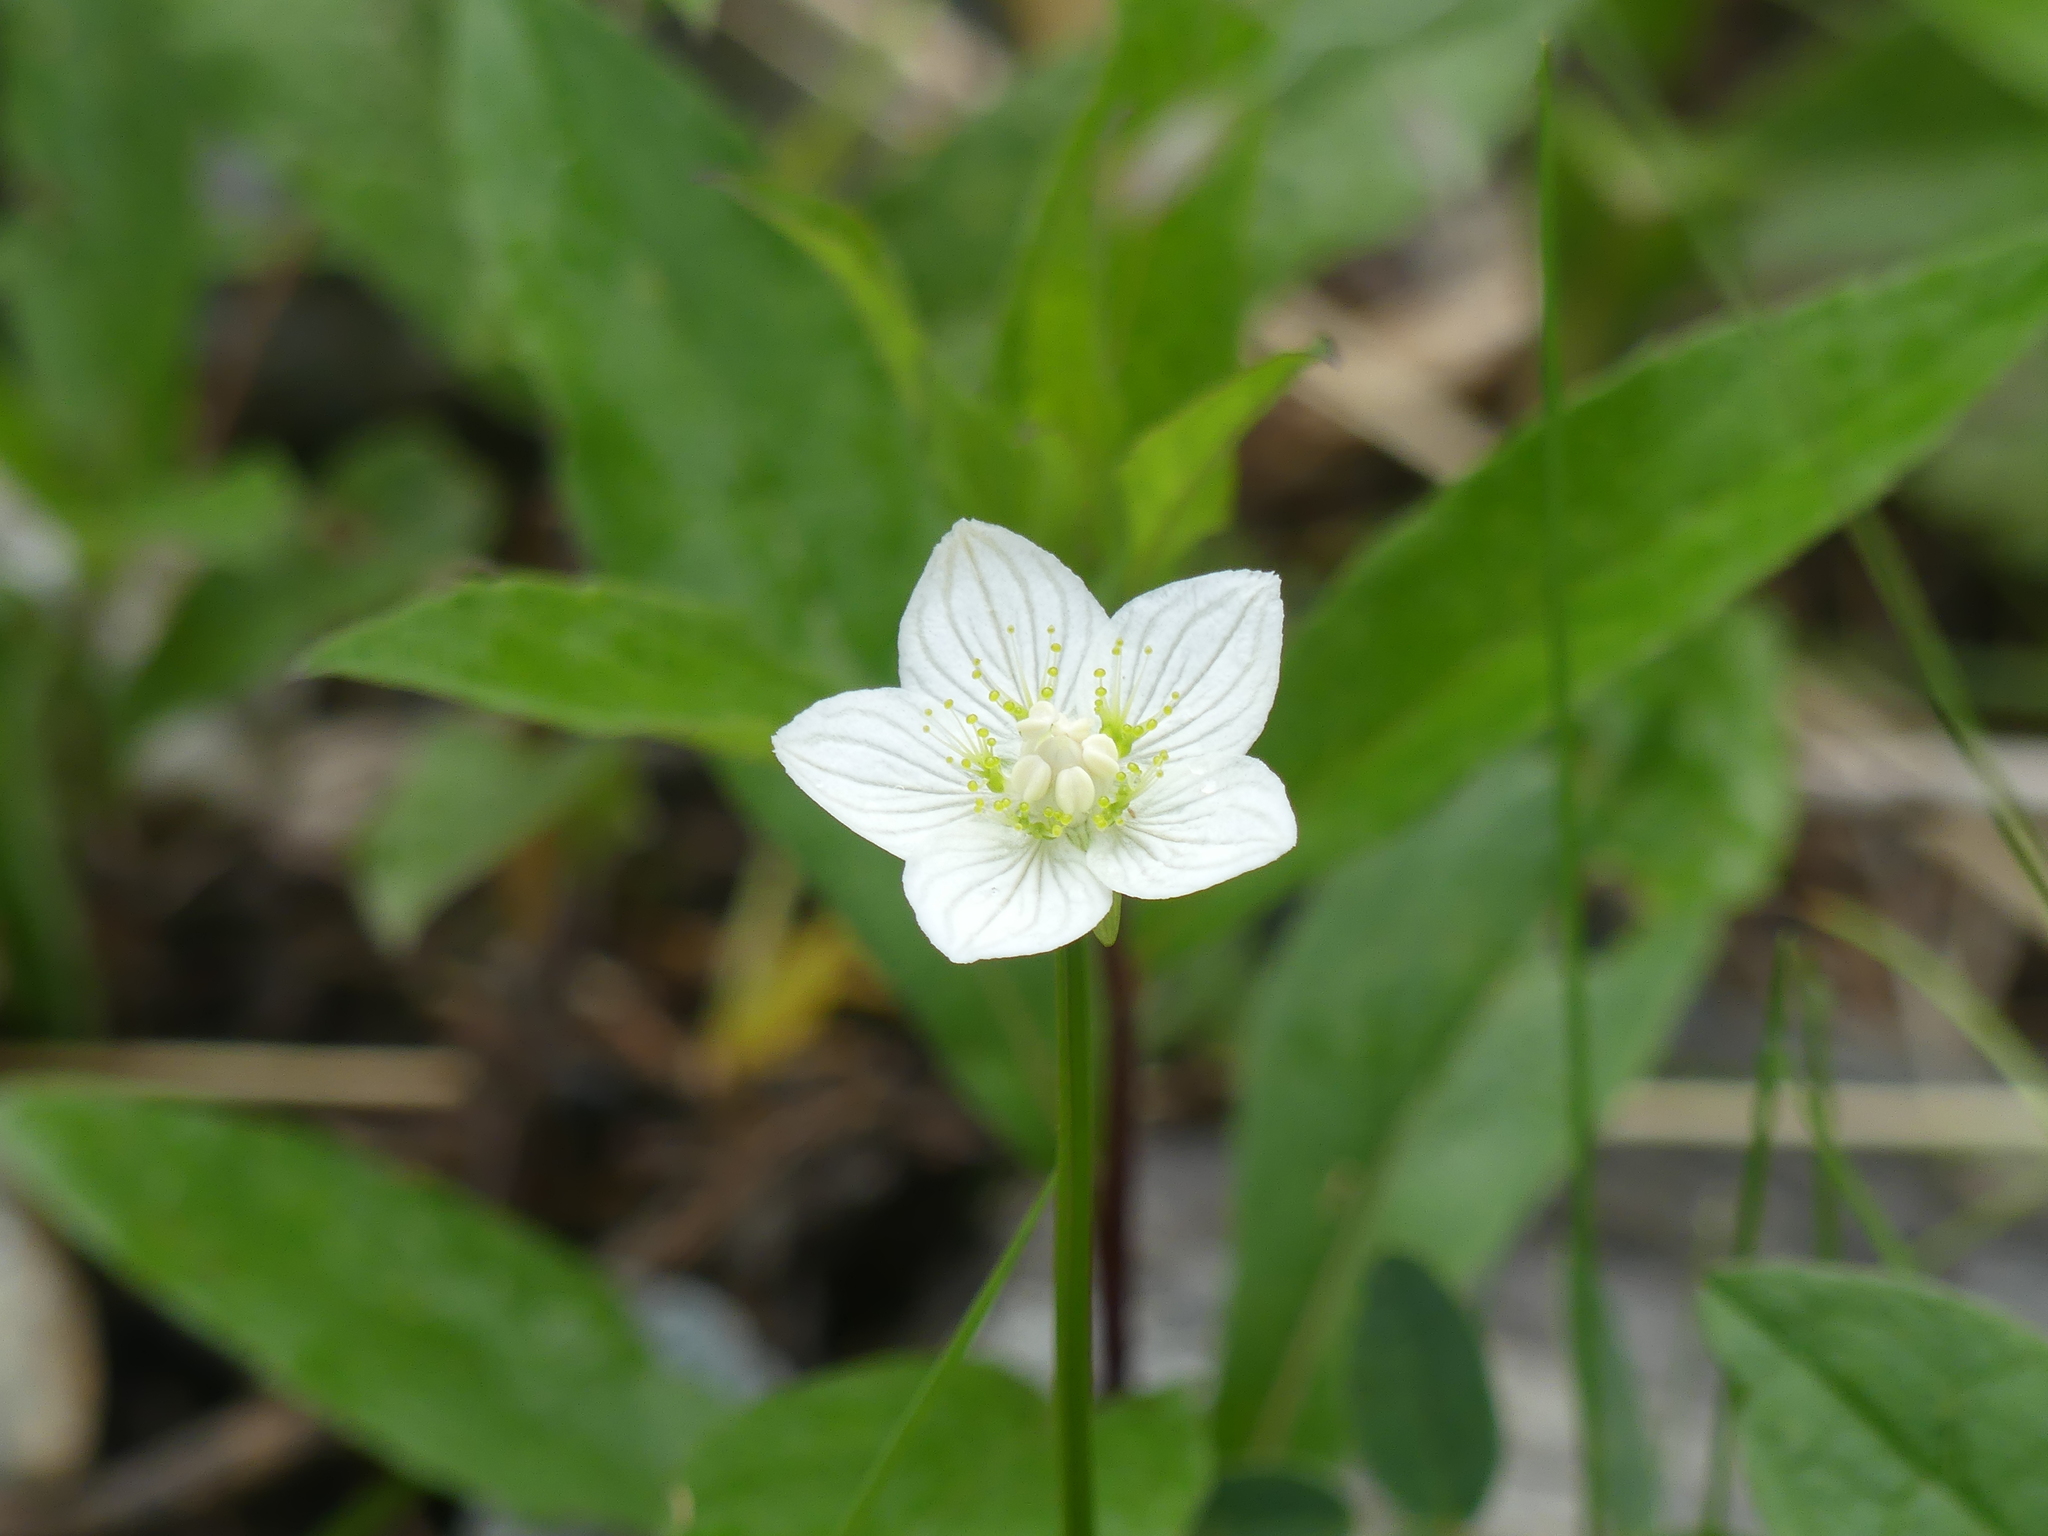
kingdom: Plantae
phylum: Tracheophyta
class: Magnoliopsida
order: Celastrales
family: Parnassiaceae
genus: Parnassia
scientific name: Parnassia palustris
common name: Grass-of-parnassus
